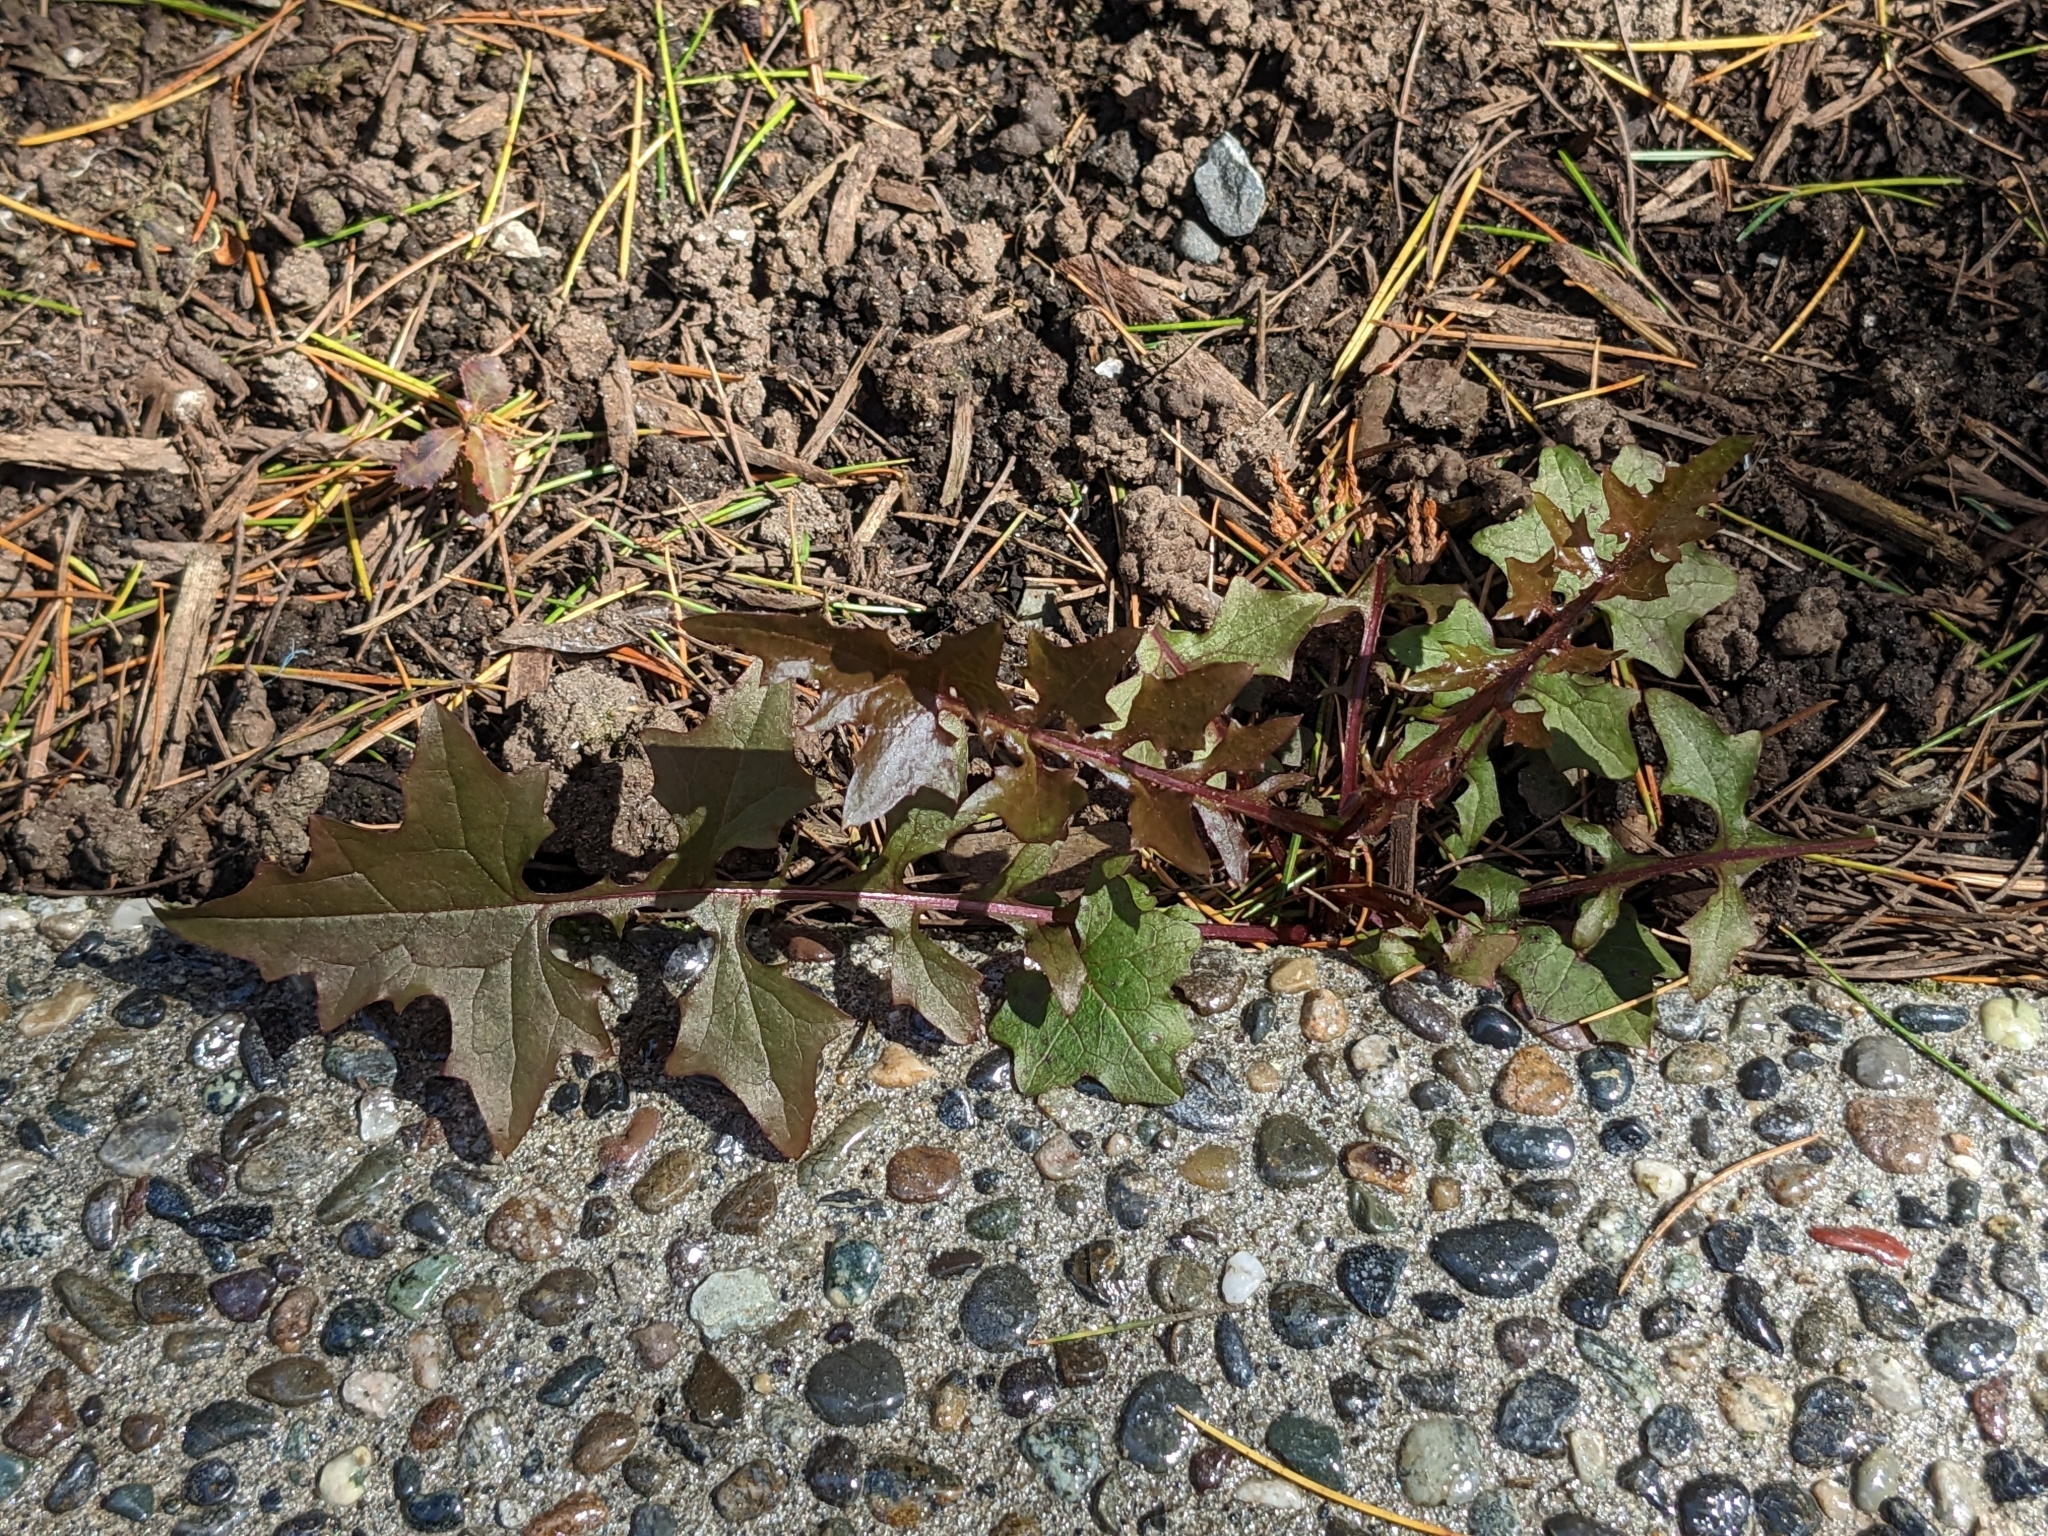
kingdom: Plantae
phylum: Tracheophyta
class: Magnoliopsida
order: Asterales
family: Asteraceae
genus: Mycelis
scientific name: Mycelis muralis
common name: Wall lettuce
